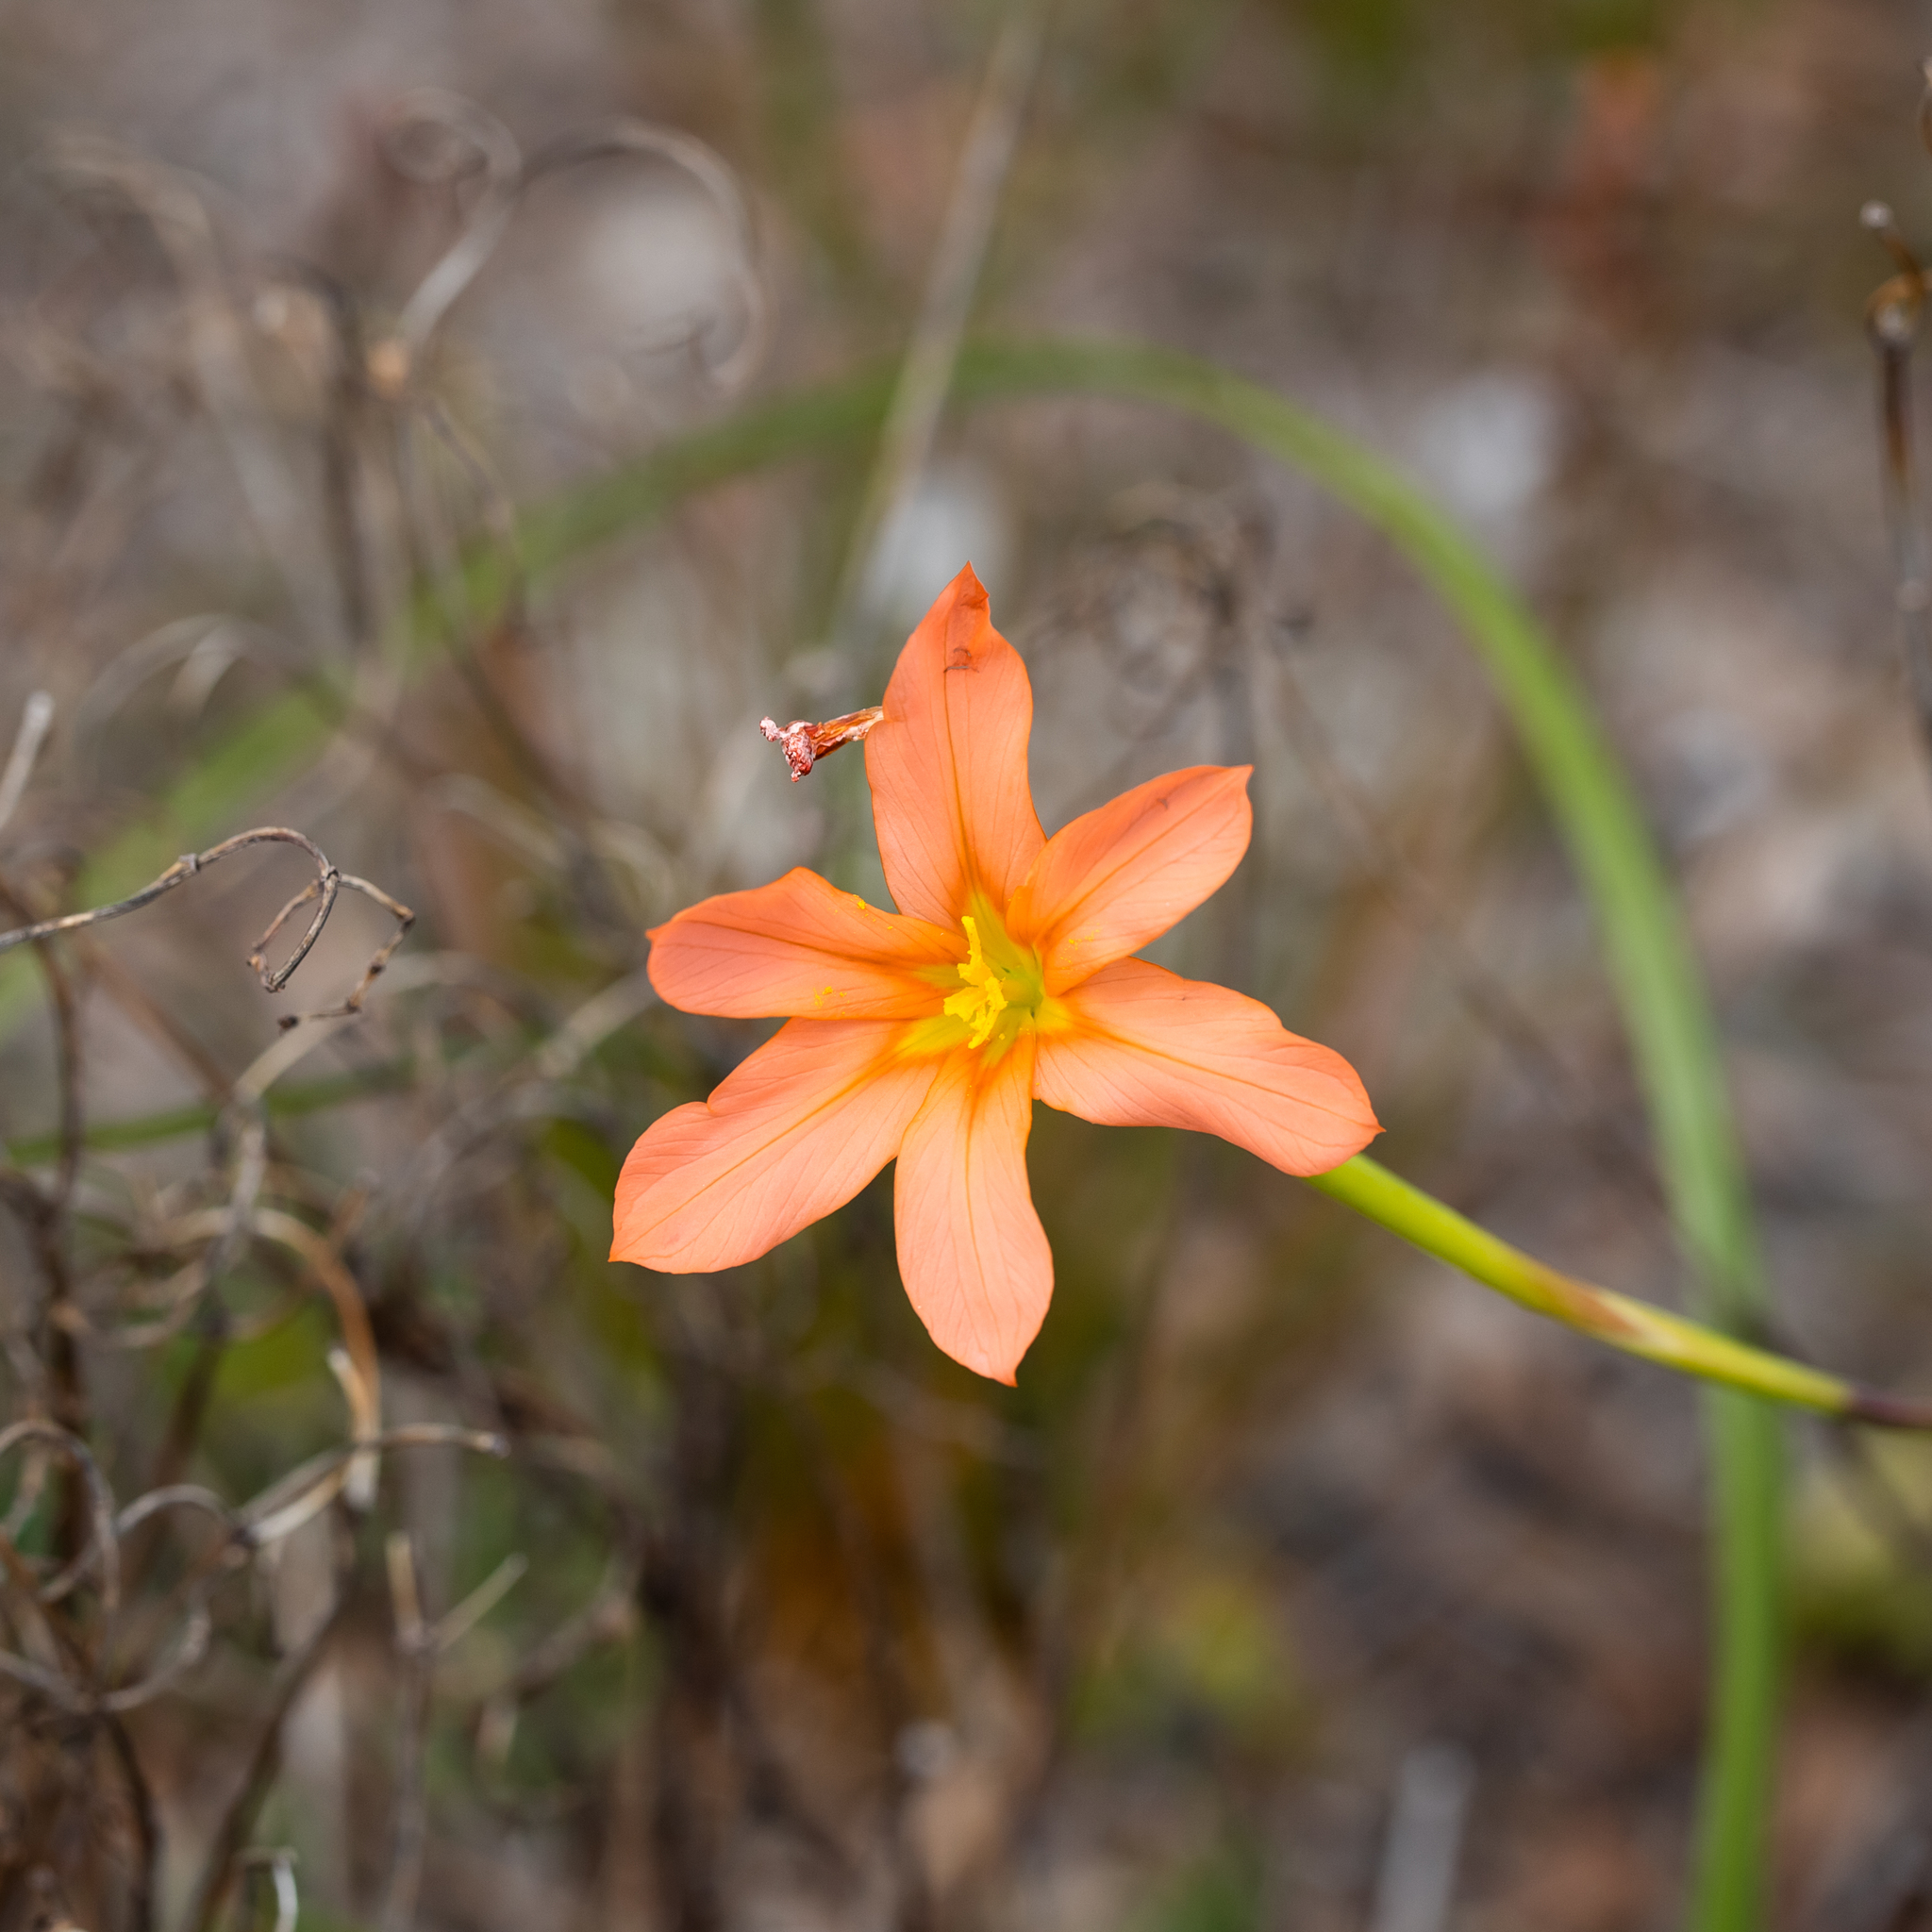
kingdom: Plantae
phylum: Tracheophyta
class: Liliopsida
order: Asparagales
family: Iridaceae
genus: Moraea
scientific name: Moraea flaccida
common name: One-leaf cape-tulip
